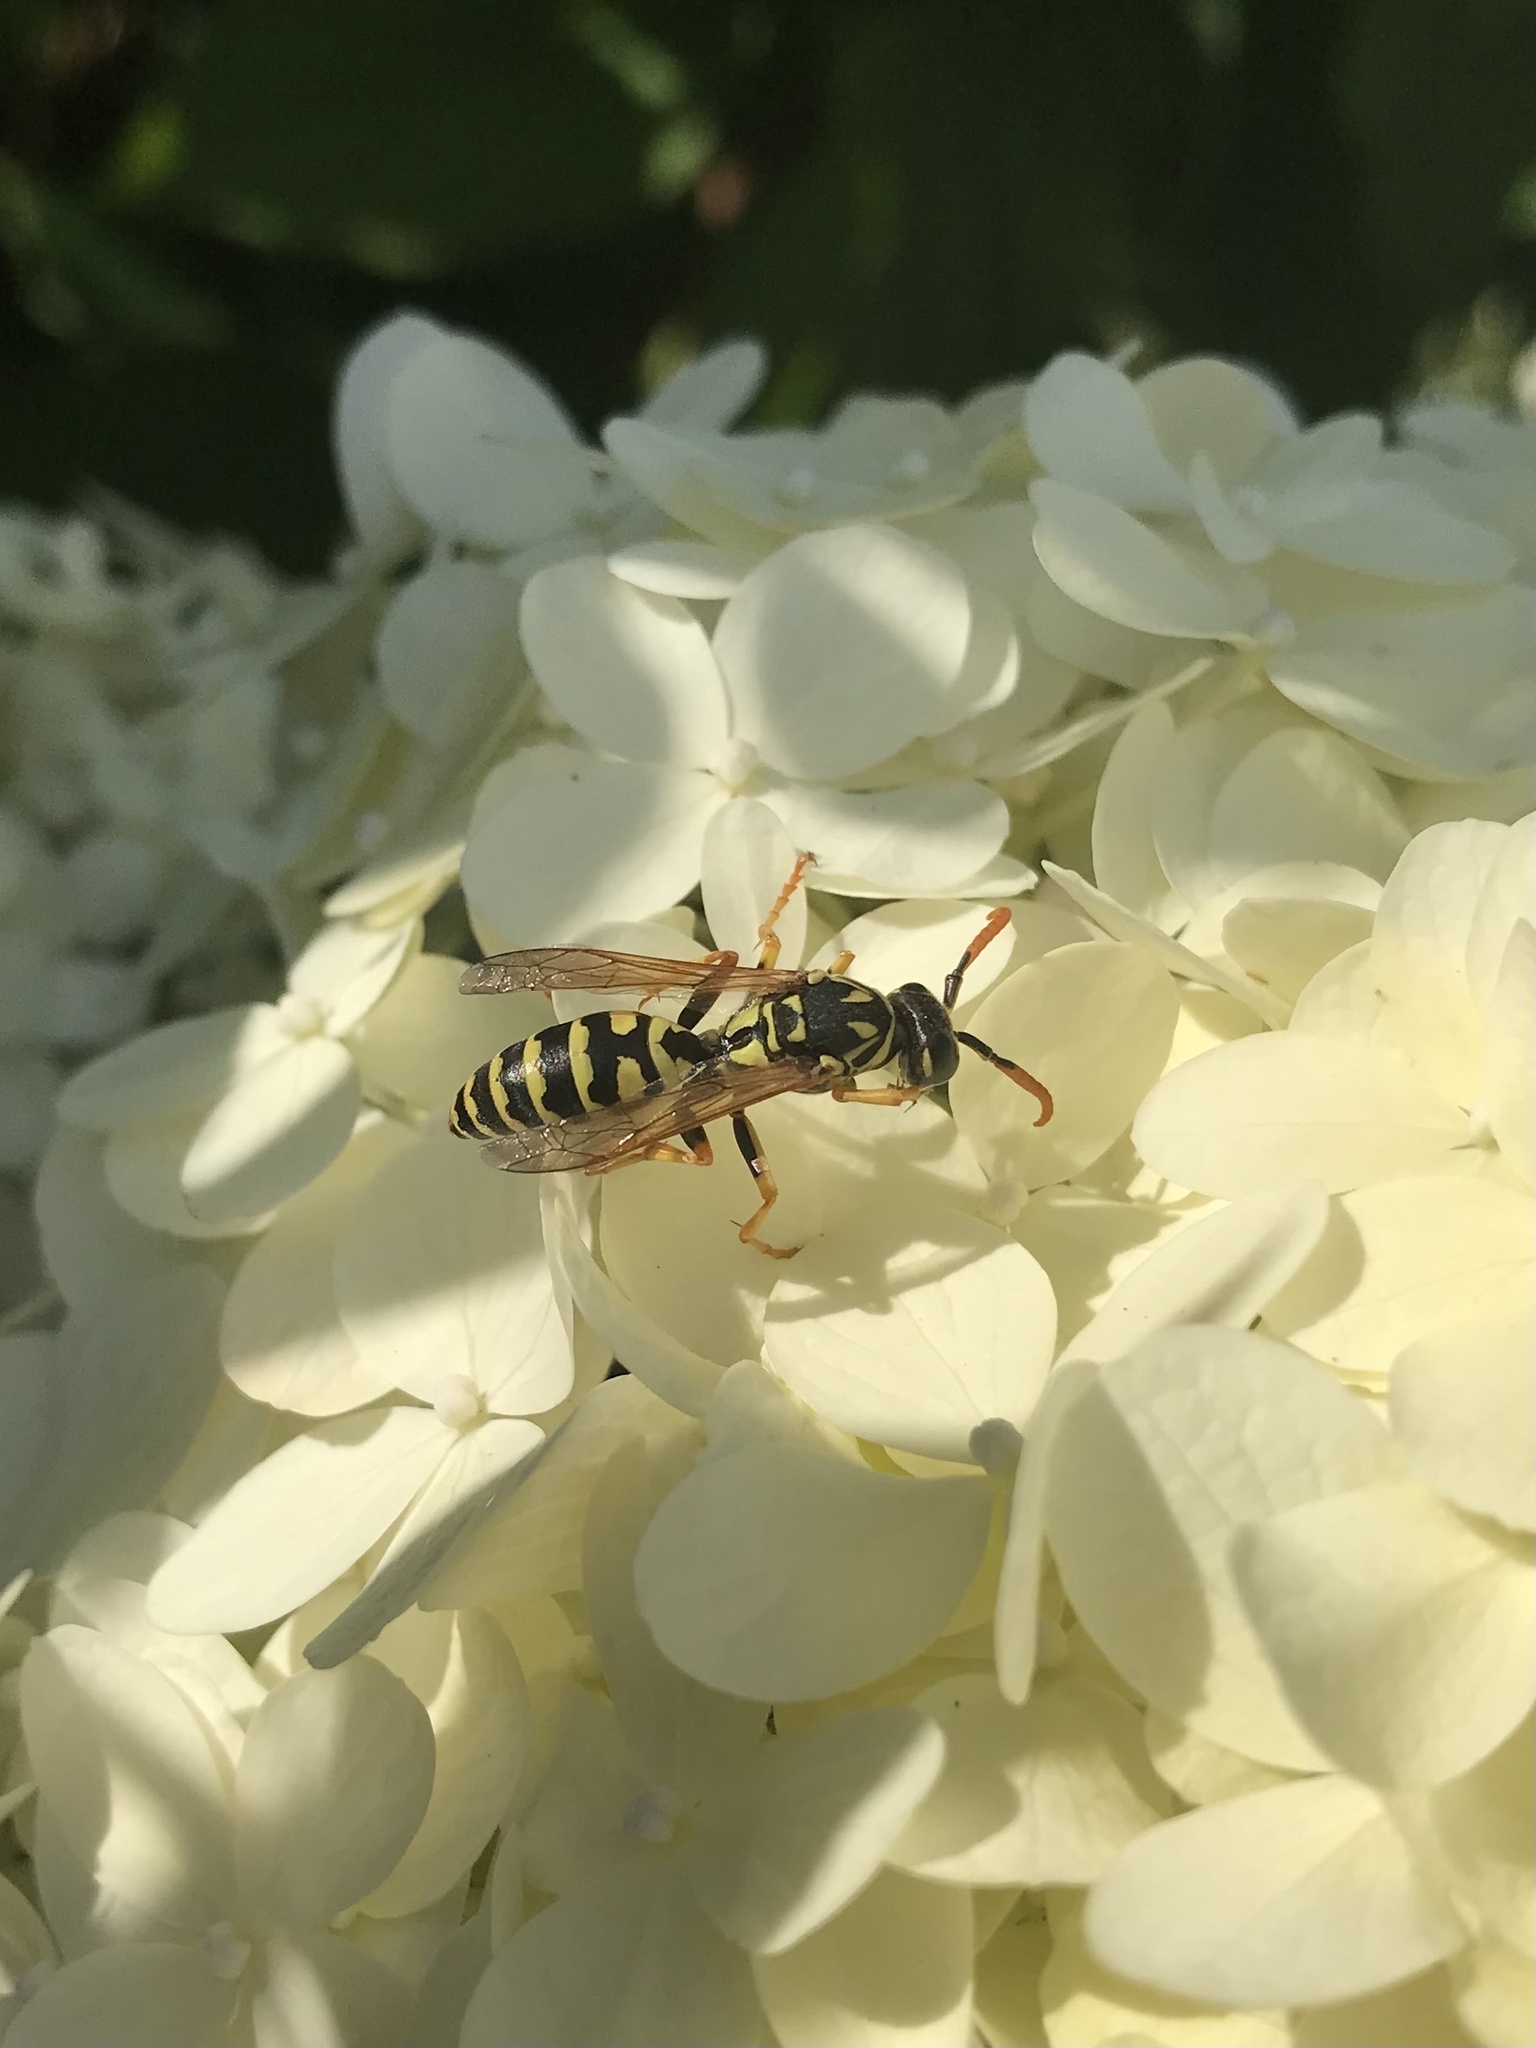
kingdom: Animalia
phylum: Arthropoda
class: Insecta
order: Hymenoptera
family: Eumenidae
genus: Polistes
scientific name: Polistes dominula
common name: Paper wasp
